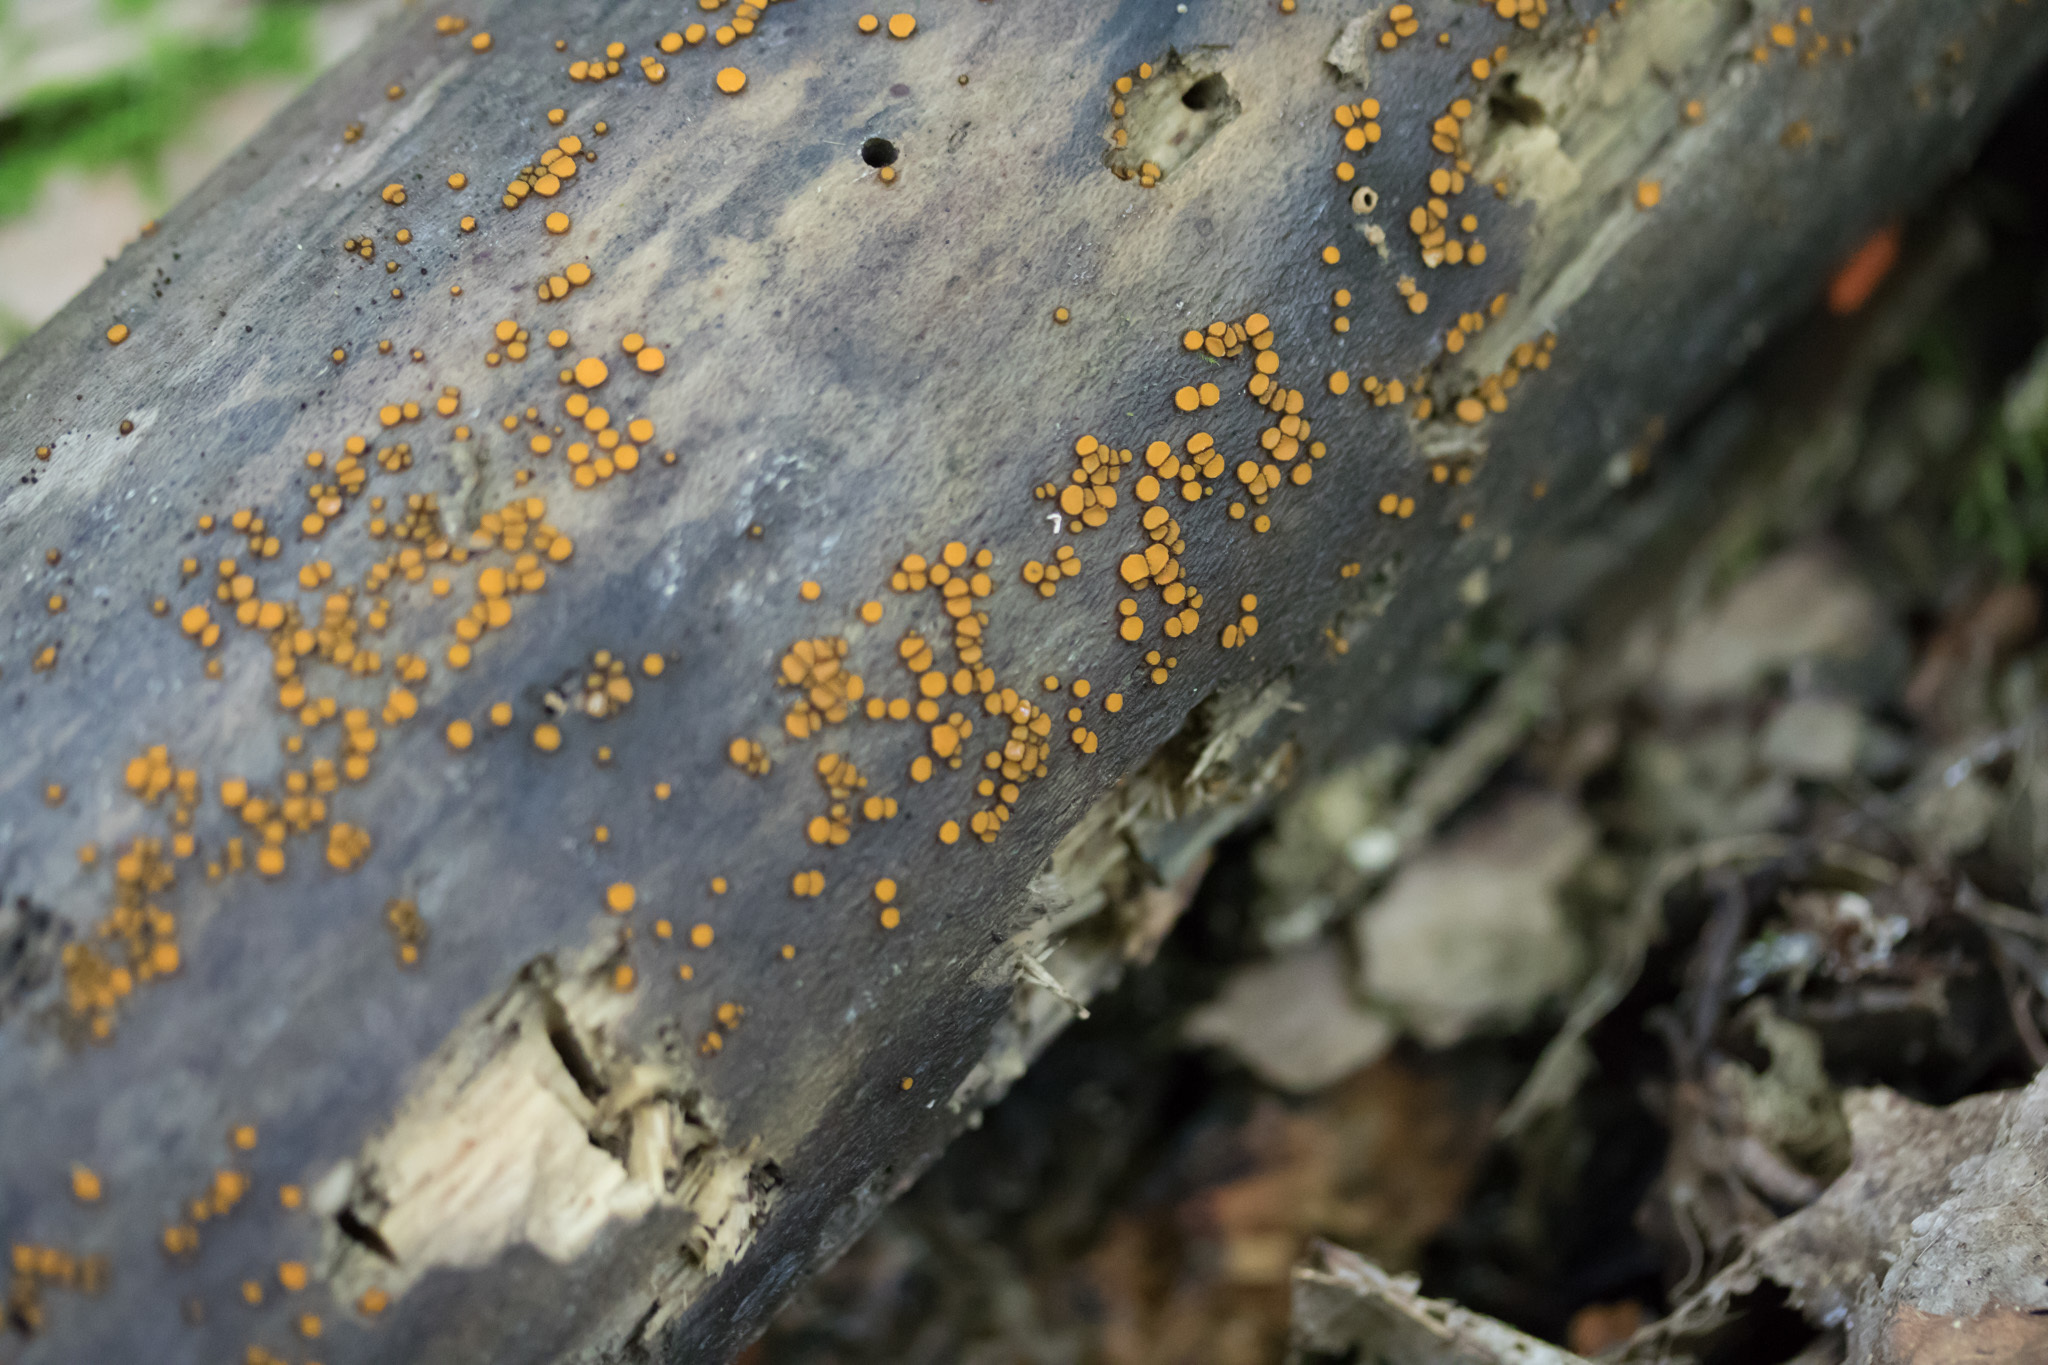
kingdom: Fungi
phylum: Ascomycota
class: Pezizomycetes
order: Pezizales
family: Pyronemataceae
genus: Scutellinia
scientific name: Scutellinia setosa
